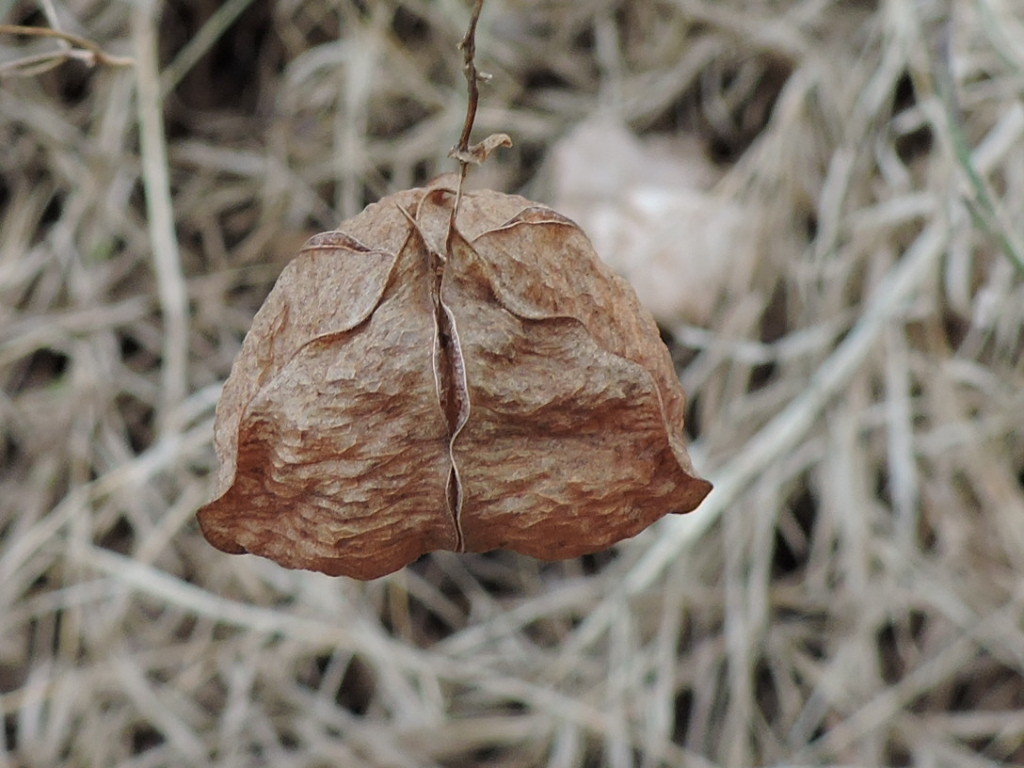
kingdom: Plantae
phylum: Tracheophyta
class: Magnoliopsida
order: Sapindales
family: Sapindaceae
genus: Cardiospermum
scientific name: Cardiospermum halicacabum
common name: Balloon vine
